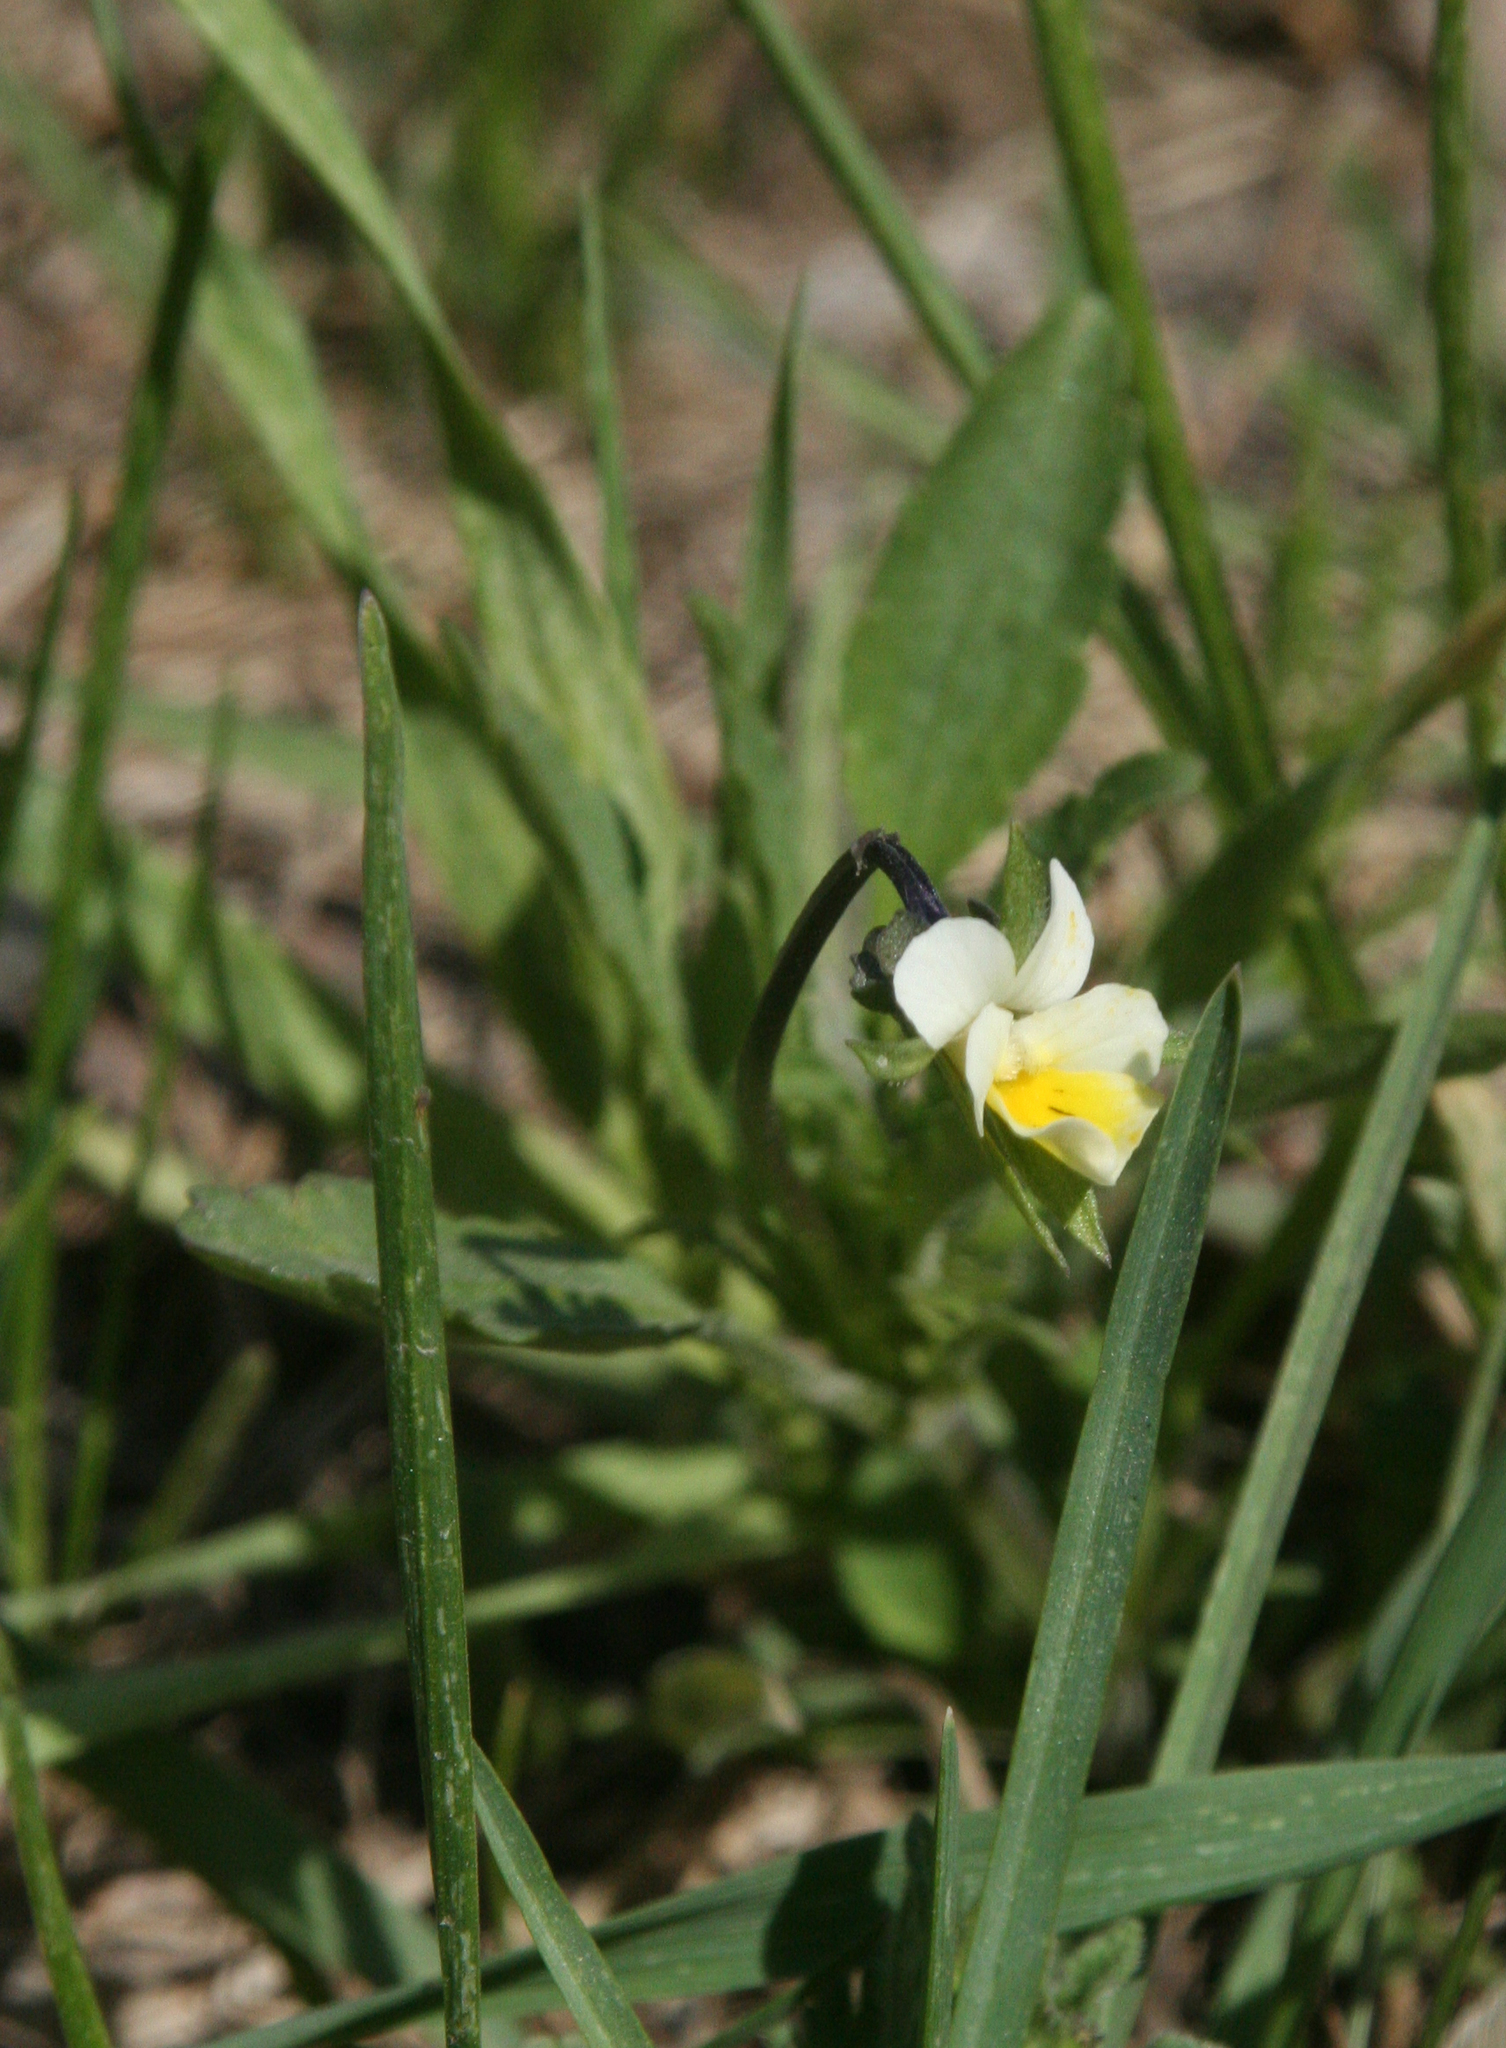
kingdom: Plantae
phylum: Tracheophyta
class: Magnoliopsida
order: Malpighiales
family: Violaceae
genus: Viola
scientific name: Viola arvensis
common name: Field pansy
